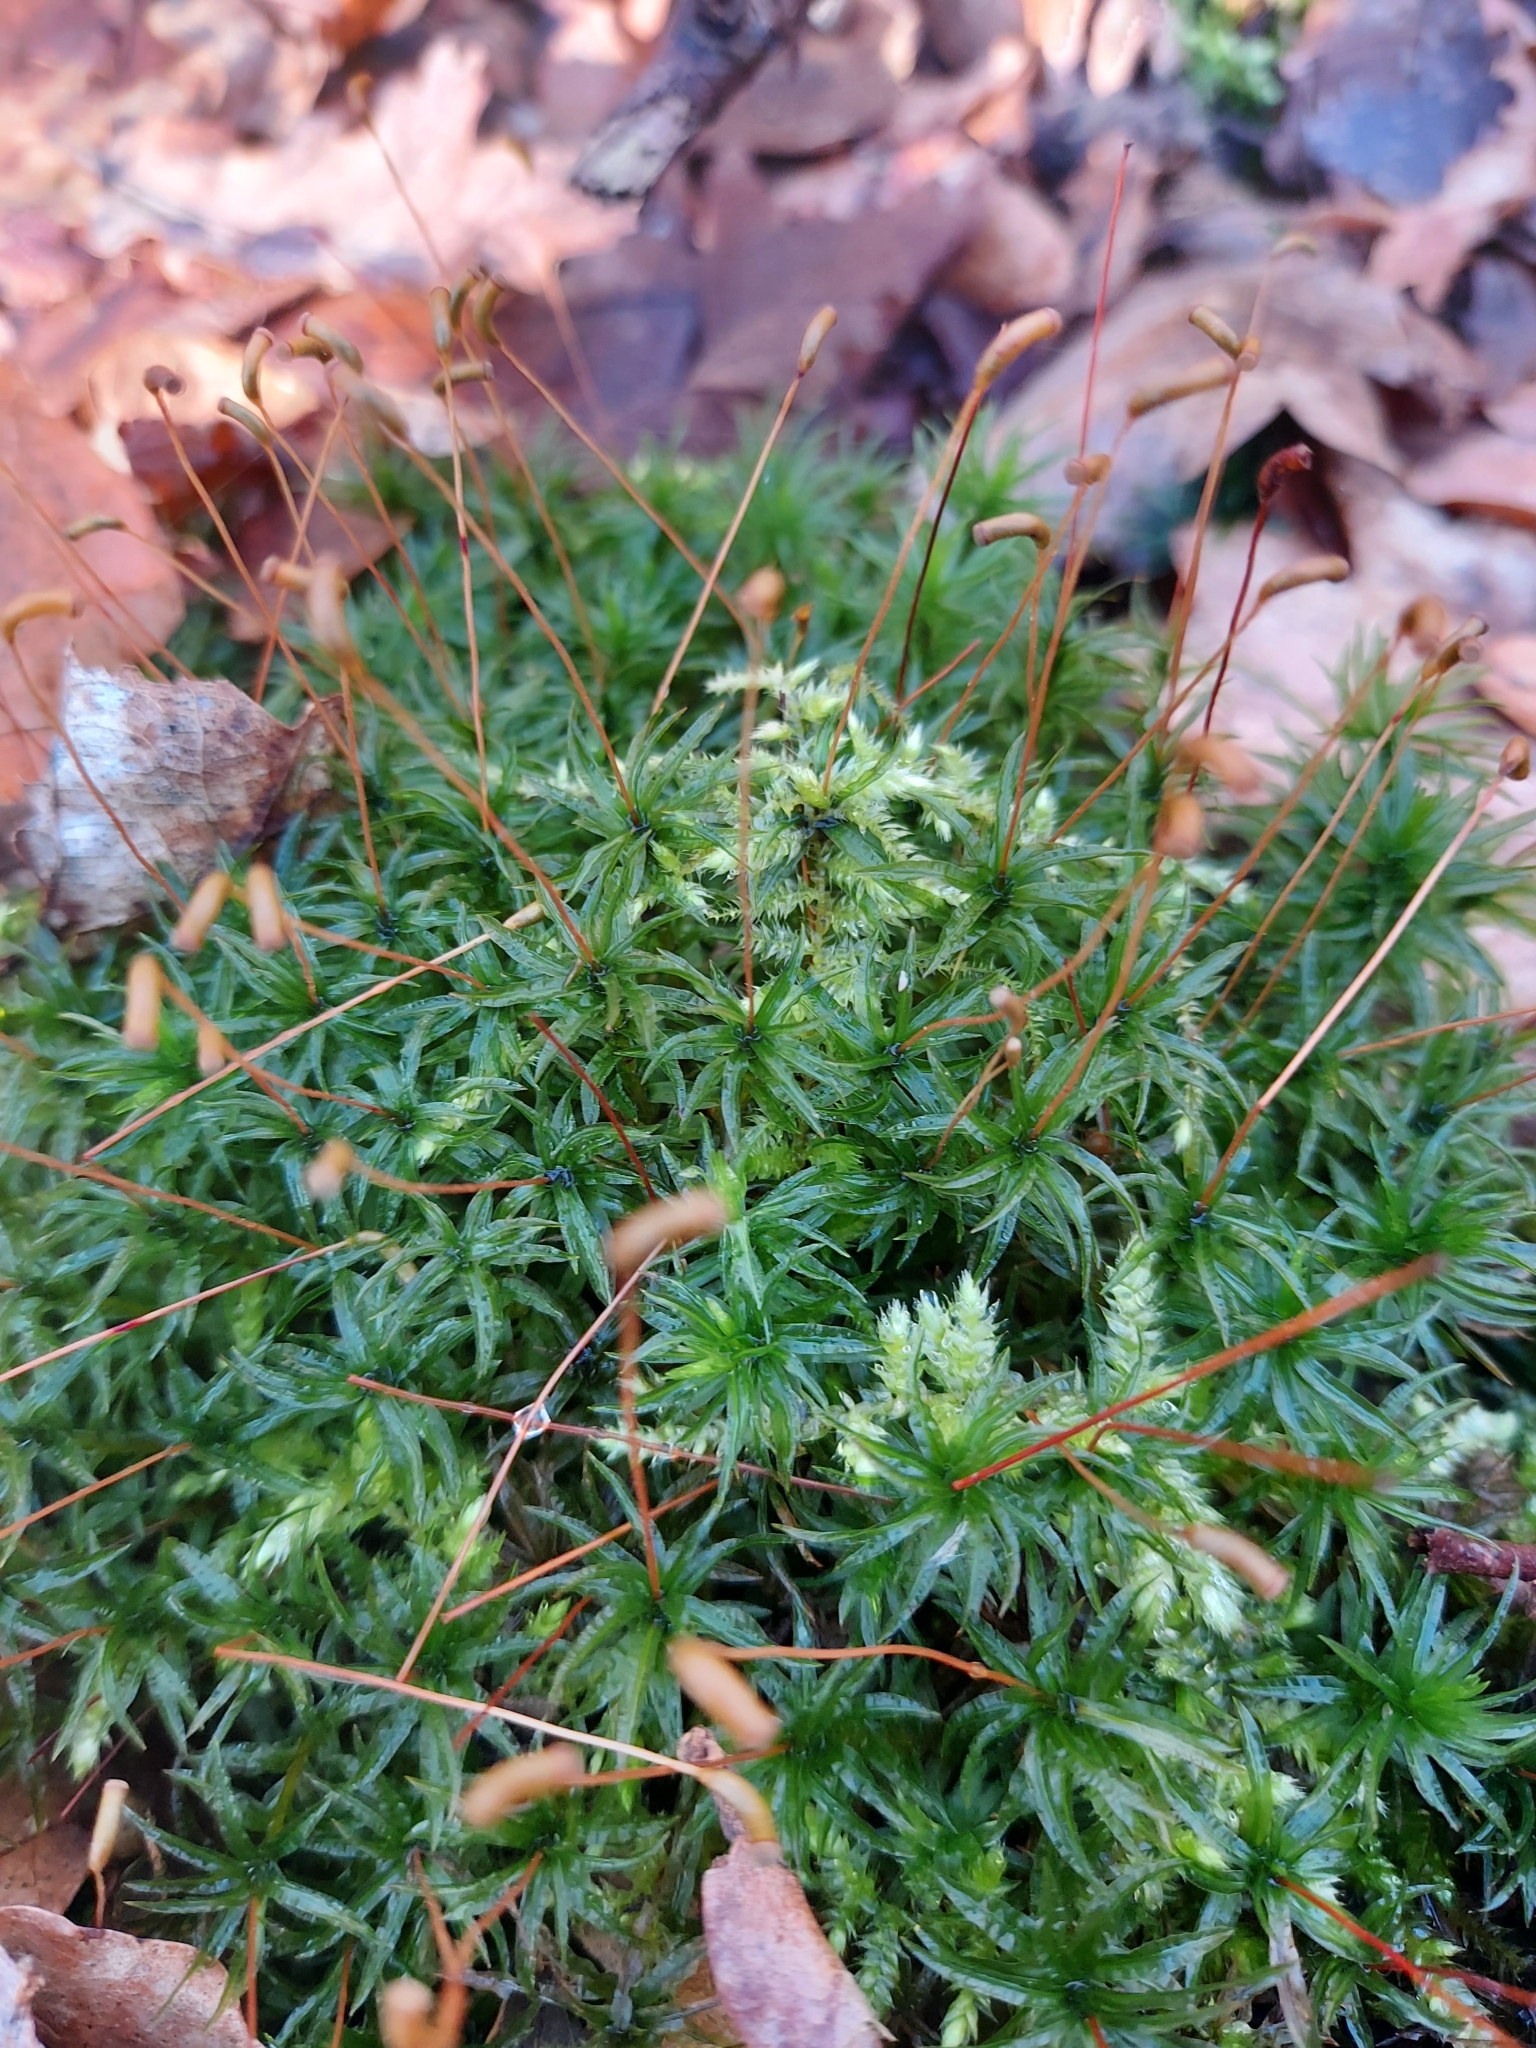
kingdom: Plantae
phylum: Bryophyta
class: Polytrichopsida
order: Polytrichales
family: Polytrichaceae
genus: Atrichum
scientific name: Atrichum undulatum
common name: Common smoothcap
